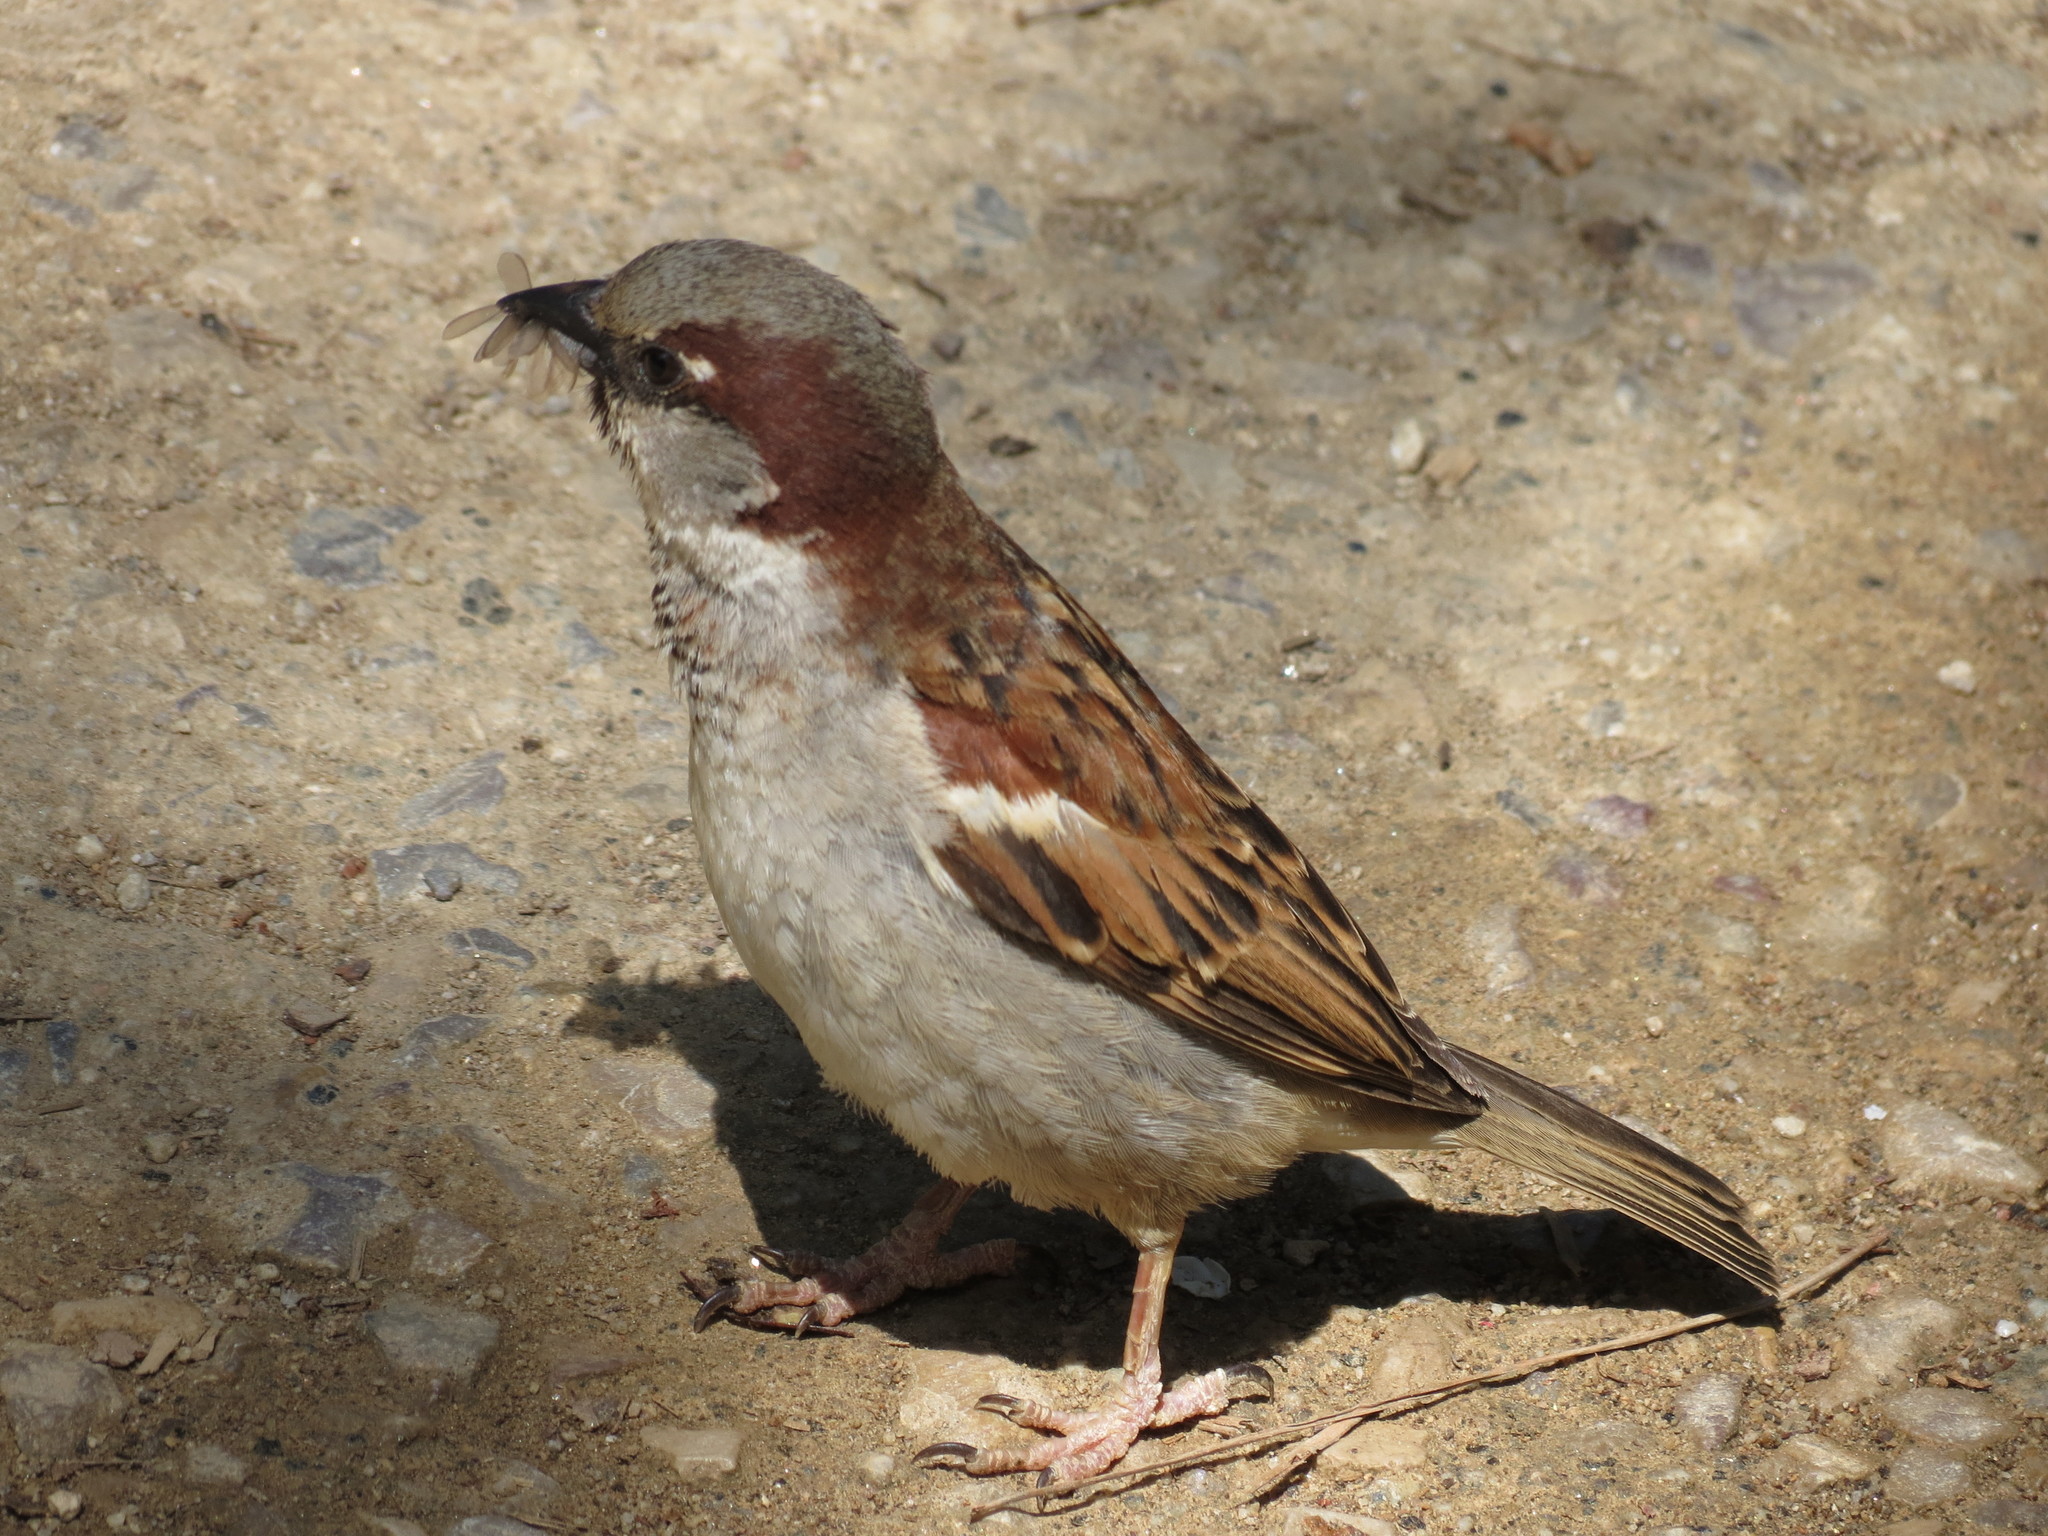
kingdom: Animalia
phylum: Chordata
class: Aves
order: Passeriformes
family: Passeridae
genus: Passer
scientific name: Passer domesticus
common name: House sparrow
